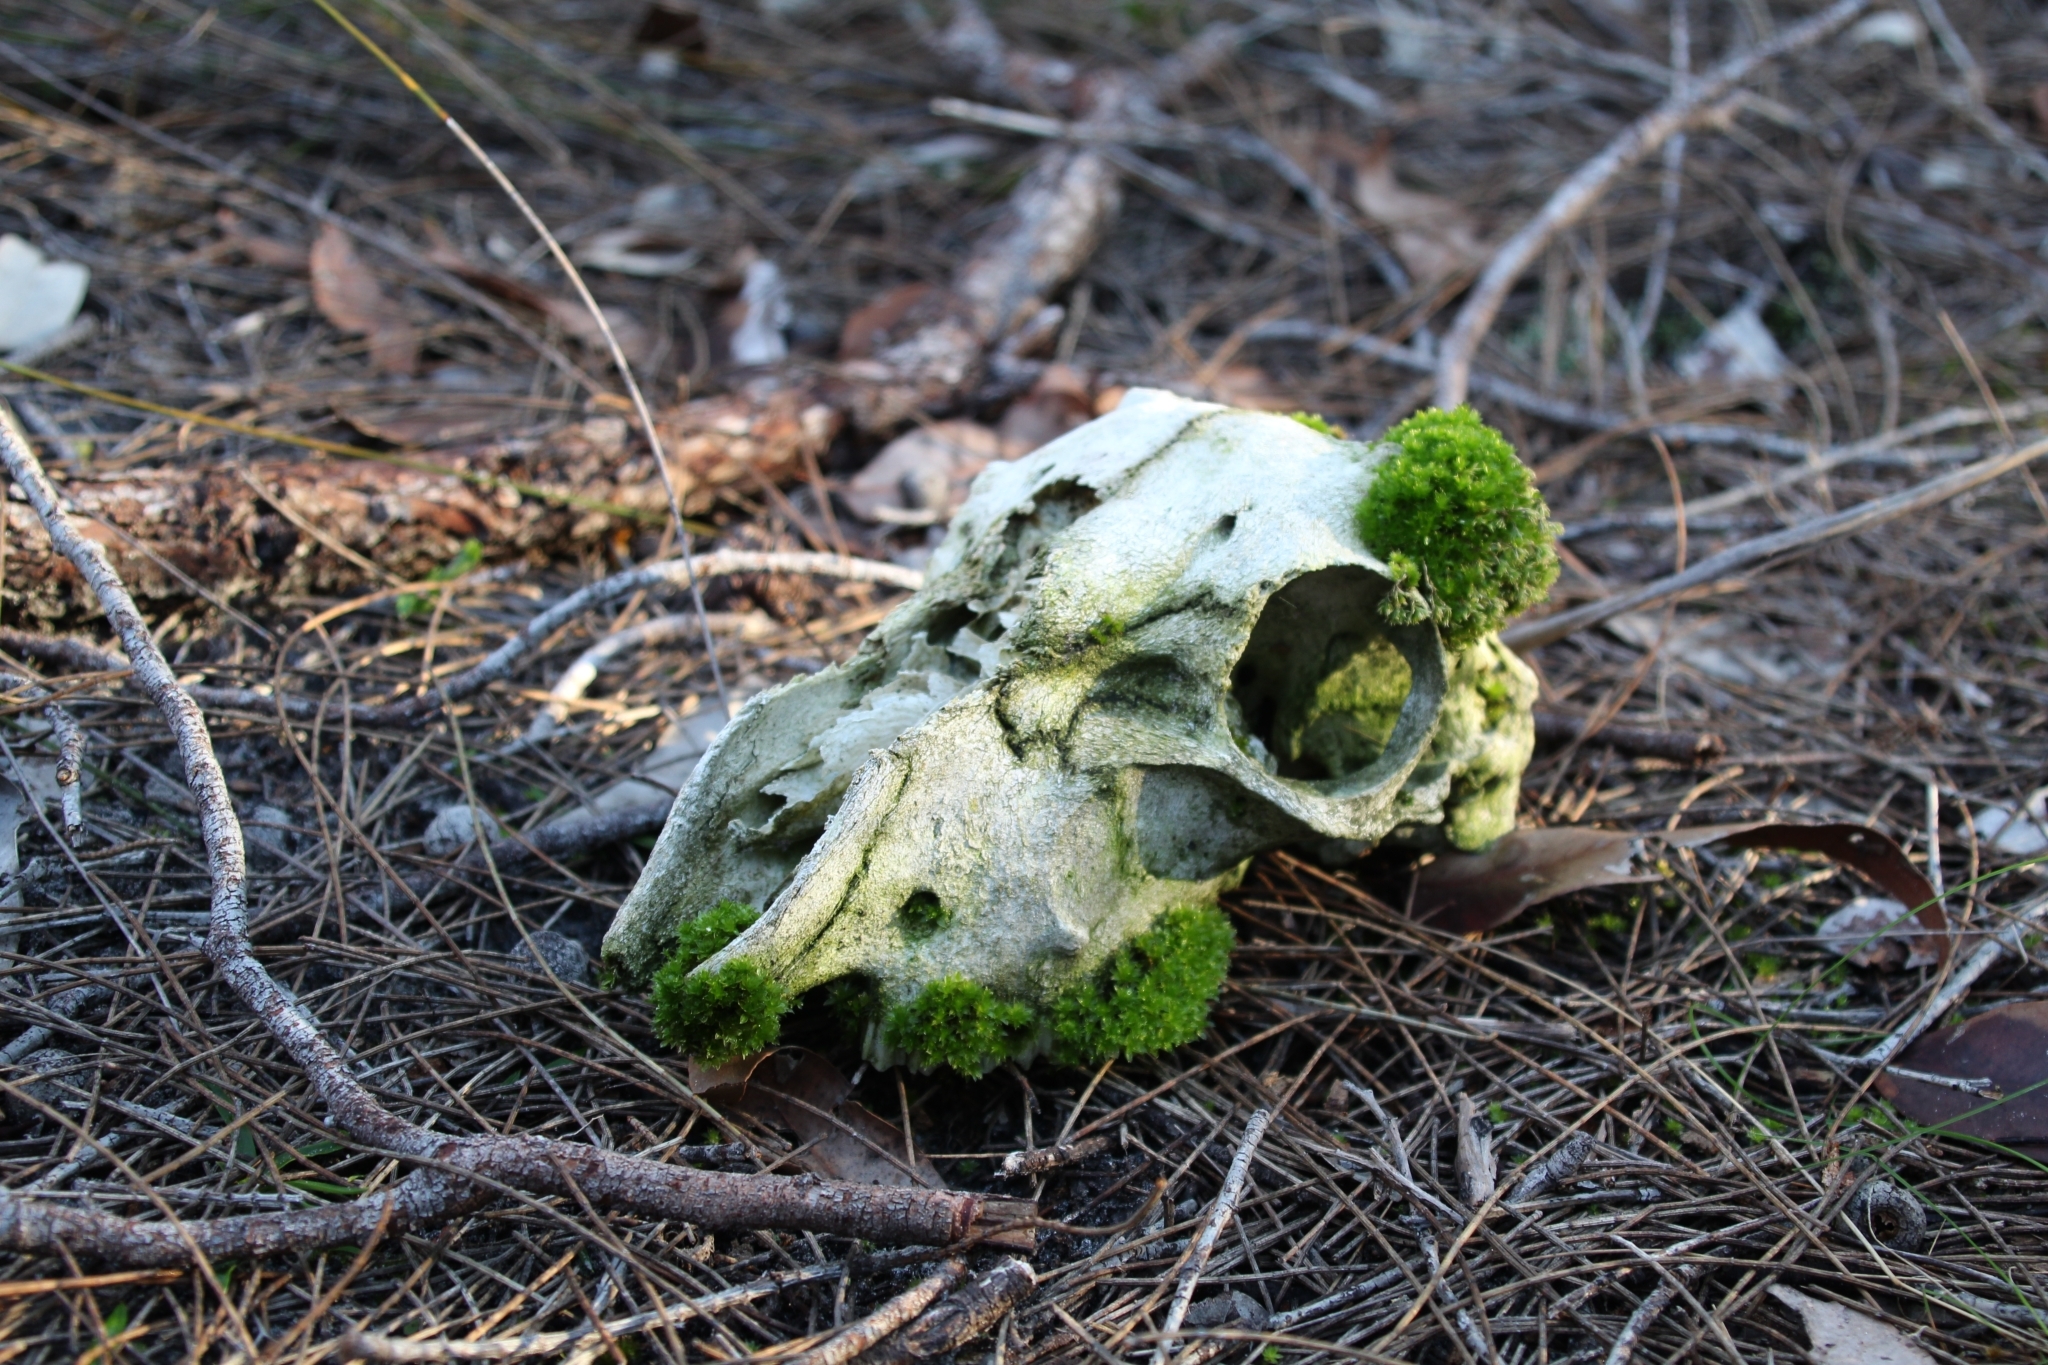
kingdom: Plantae
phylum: Bryophyta
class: Bryopsida
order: Splachnales
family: Splachnaceae
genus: Tayloria
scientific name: Tayloria octoblephara
